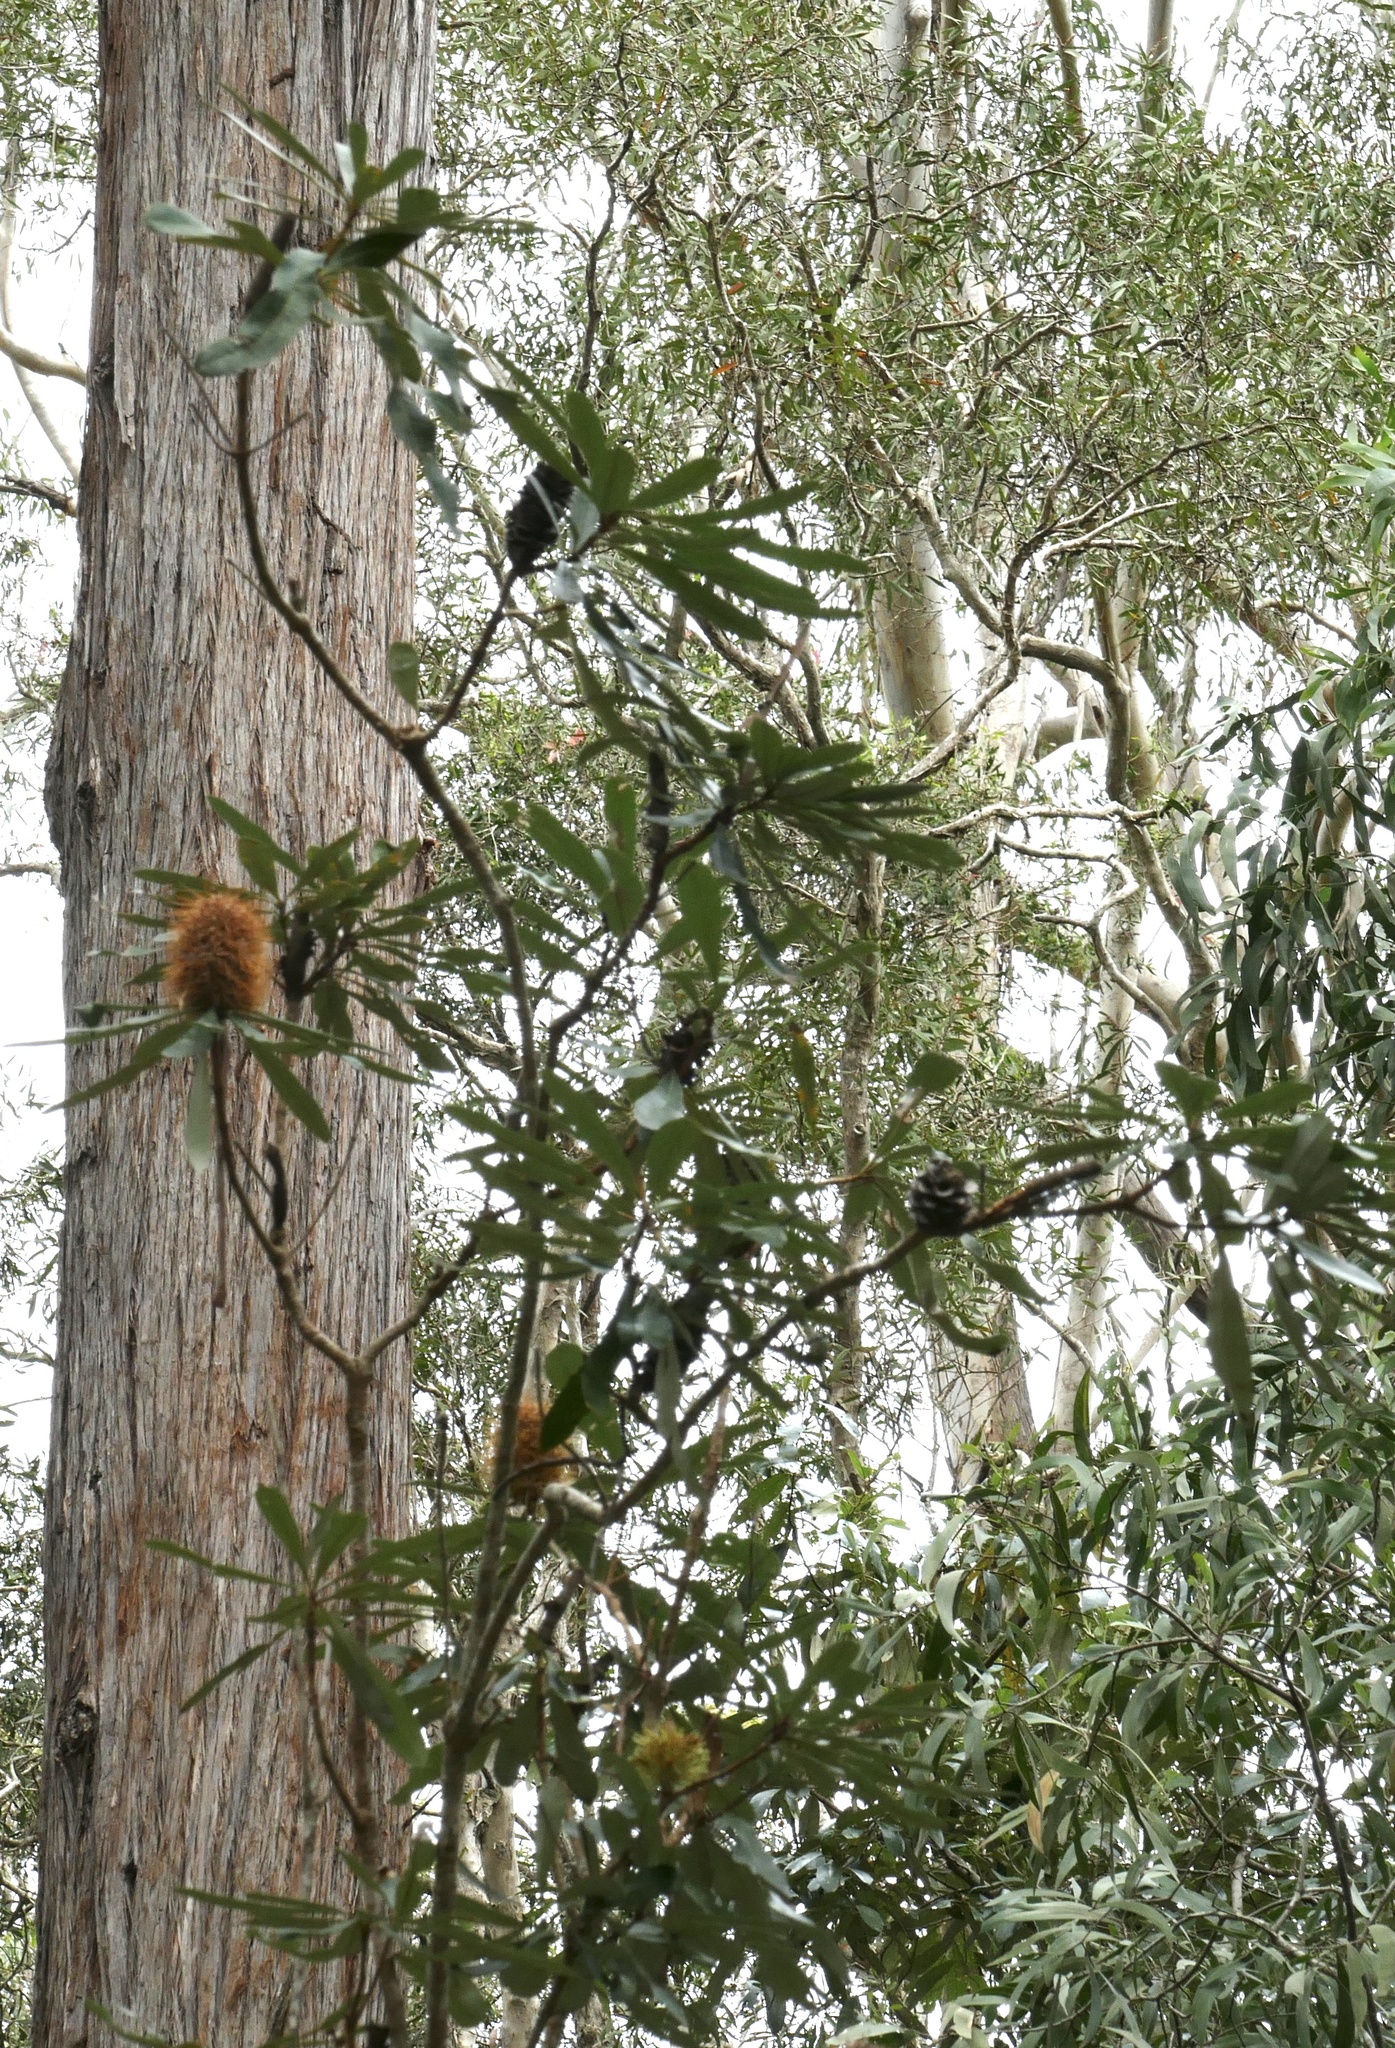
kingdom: Plantae
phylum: Tracheophyta
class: Magnoliopsida
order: Proteales
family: Proteaceae
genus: Banksia
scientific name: Banksia integrifolia
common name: White-honeysuckle
